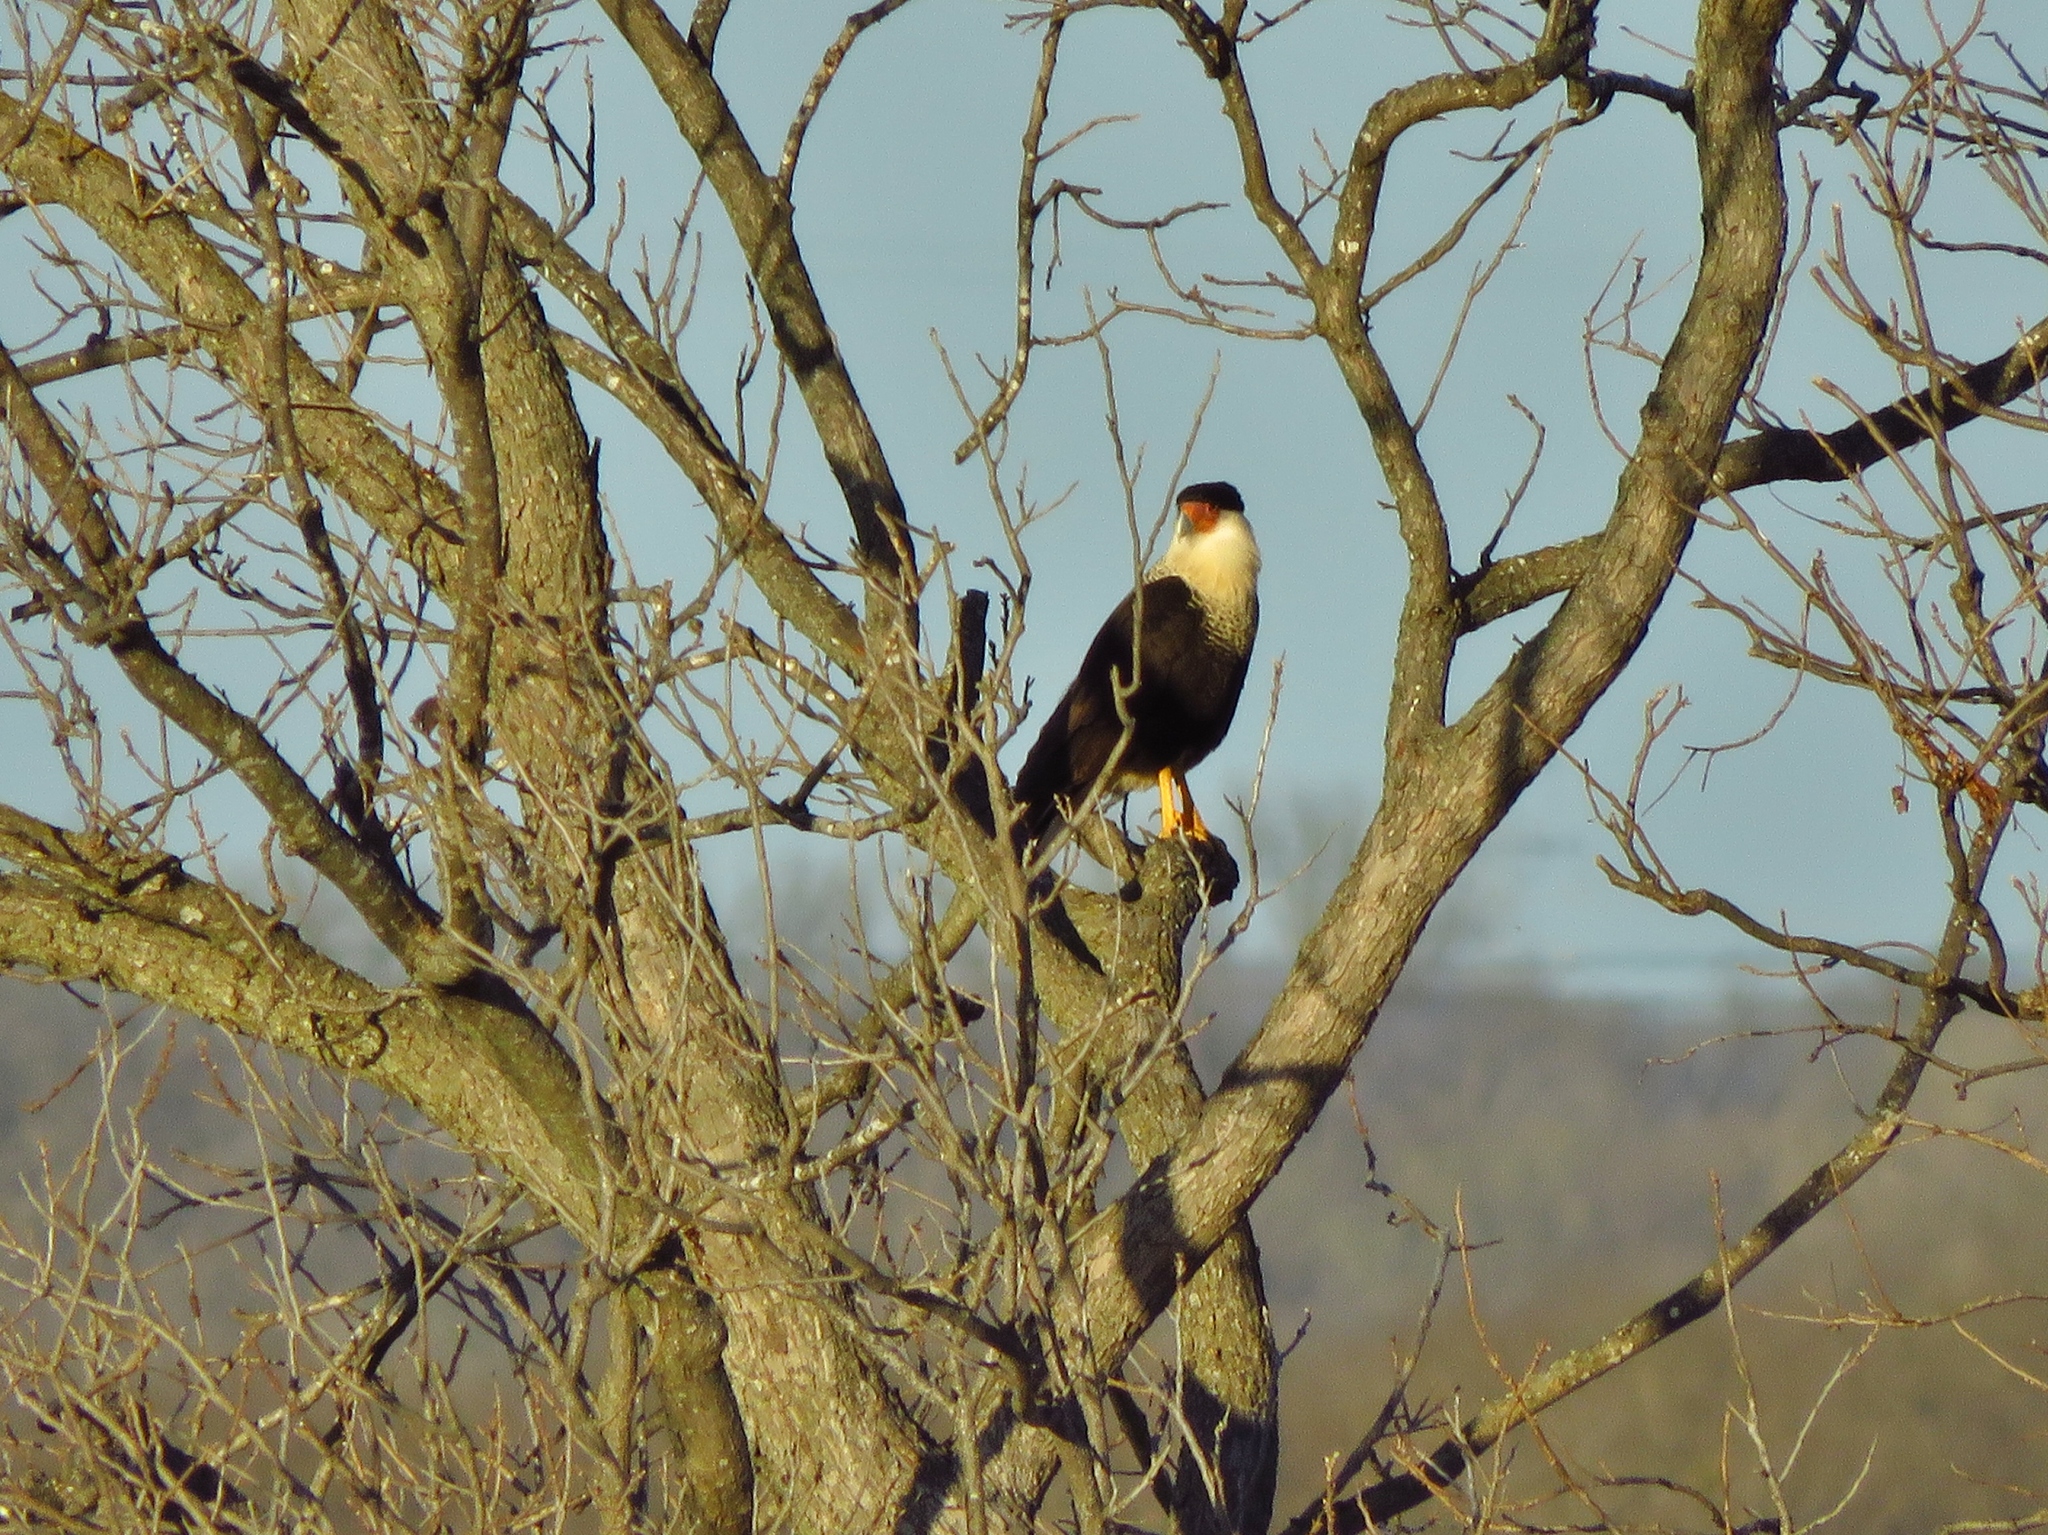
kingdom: Animalia
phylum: Chordata
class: Aves
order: Falconiformes
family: Falconidae
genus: Caracara
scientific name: Caracara plancus
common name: Southern caracara
